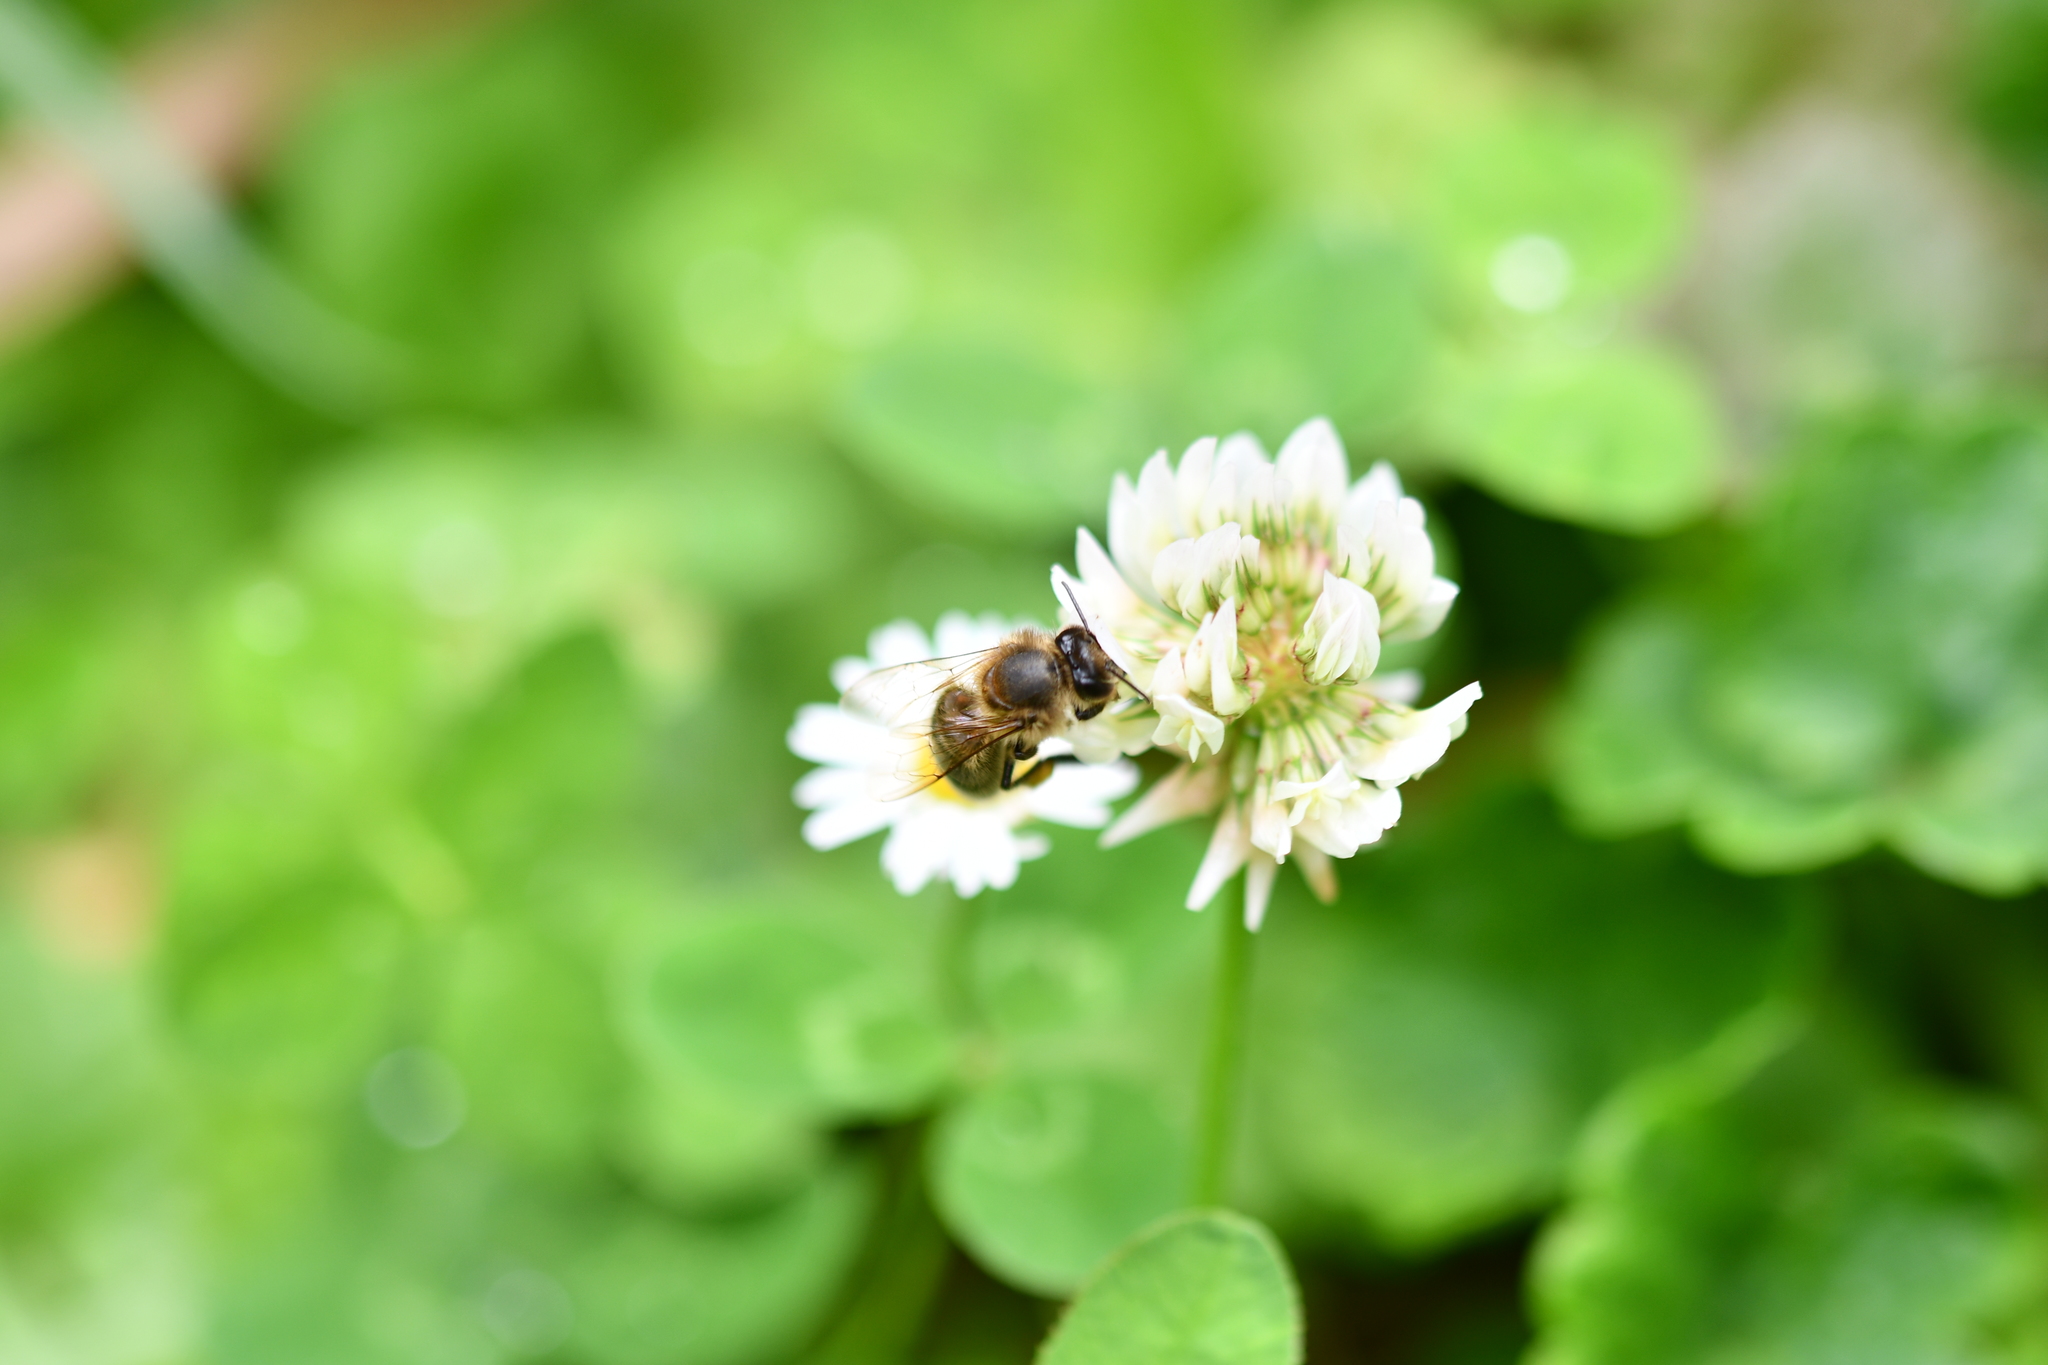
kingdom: Animalia
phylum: Arthropoda
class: Insecta
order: Hymenoptera
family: Apidae
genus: Apis
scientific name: Apis mellifera
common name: Honey bee
